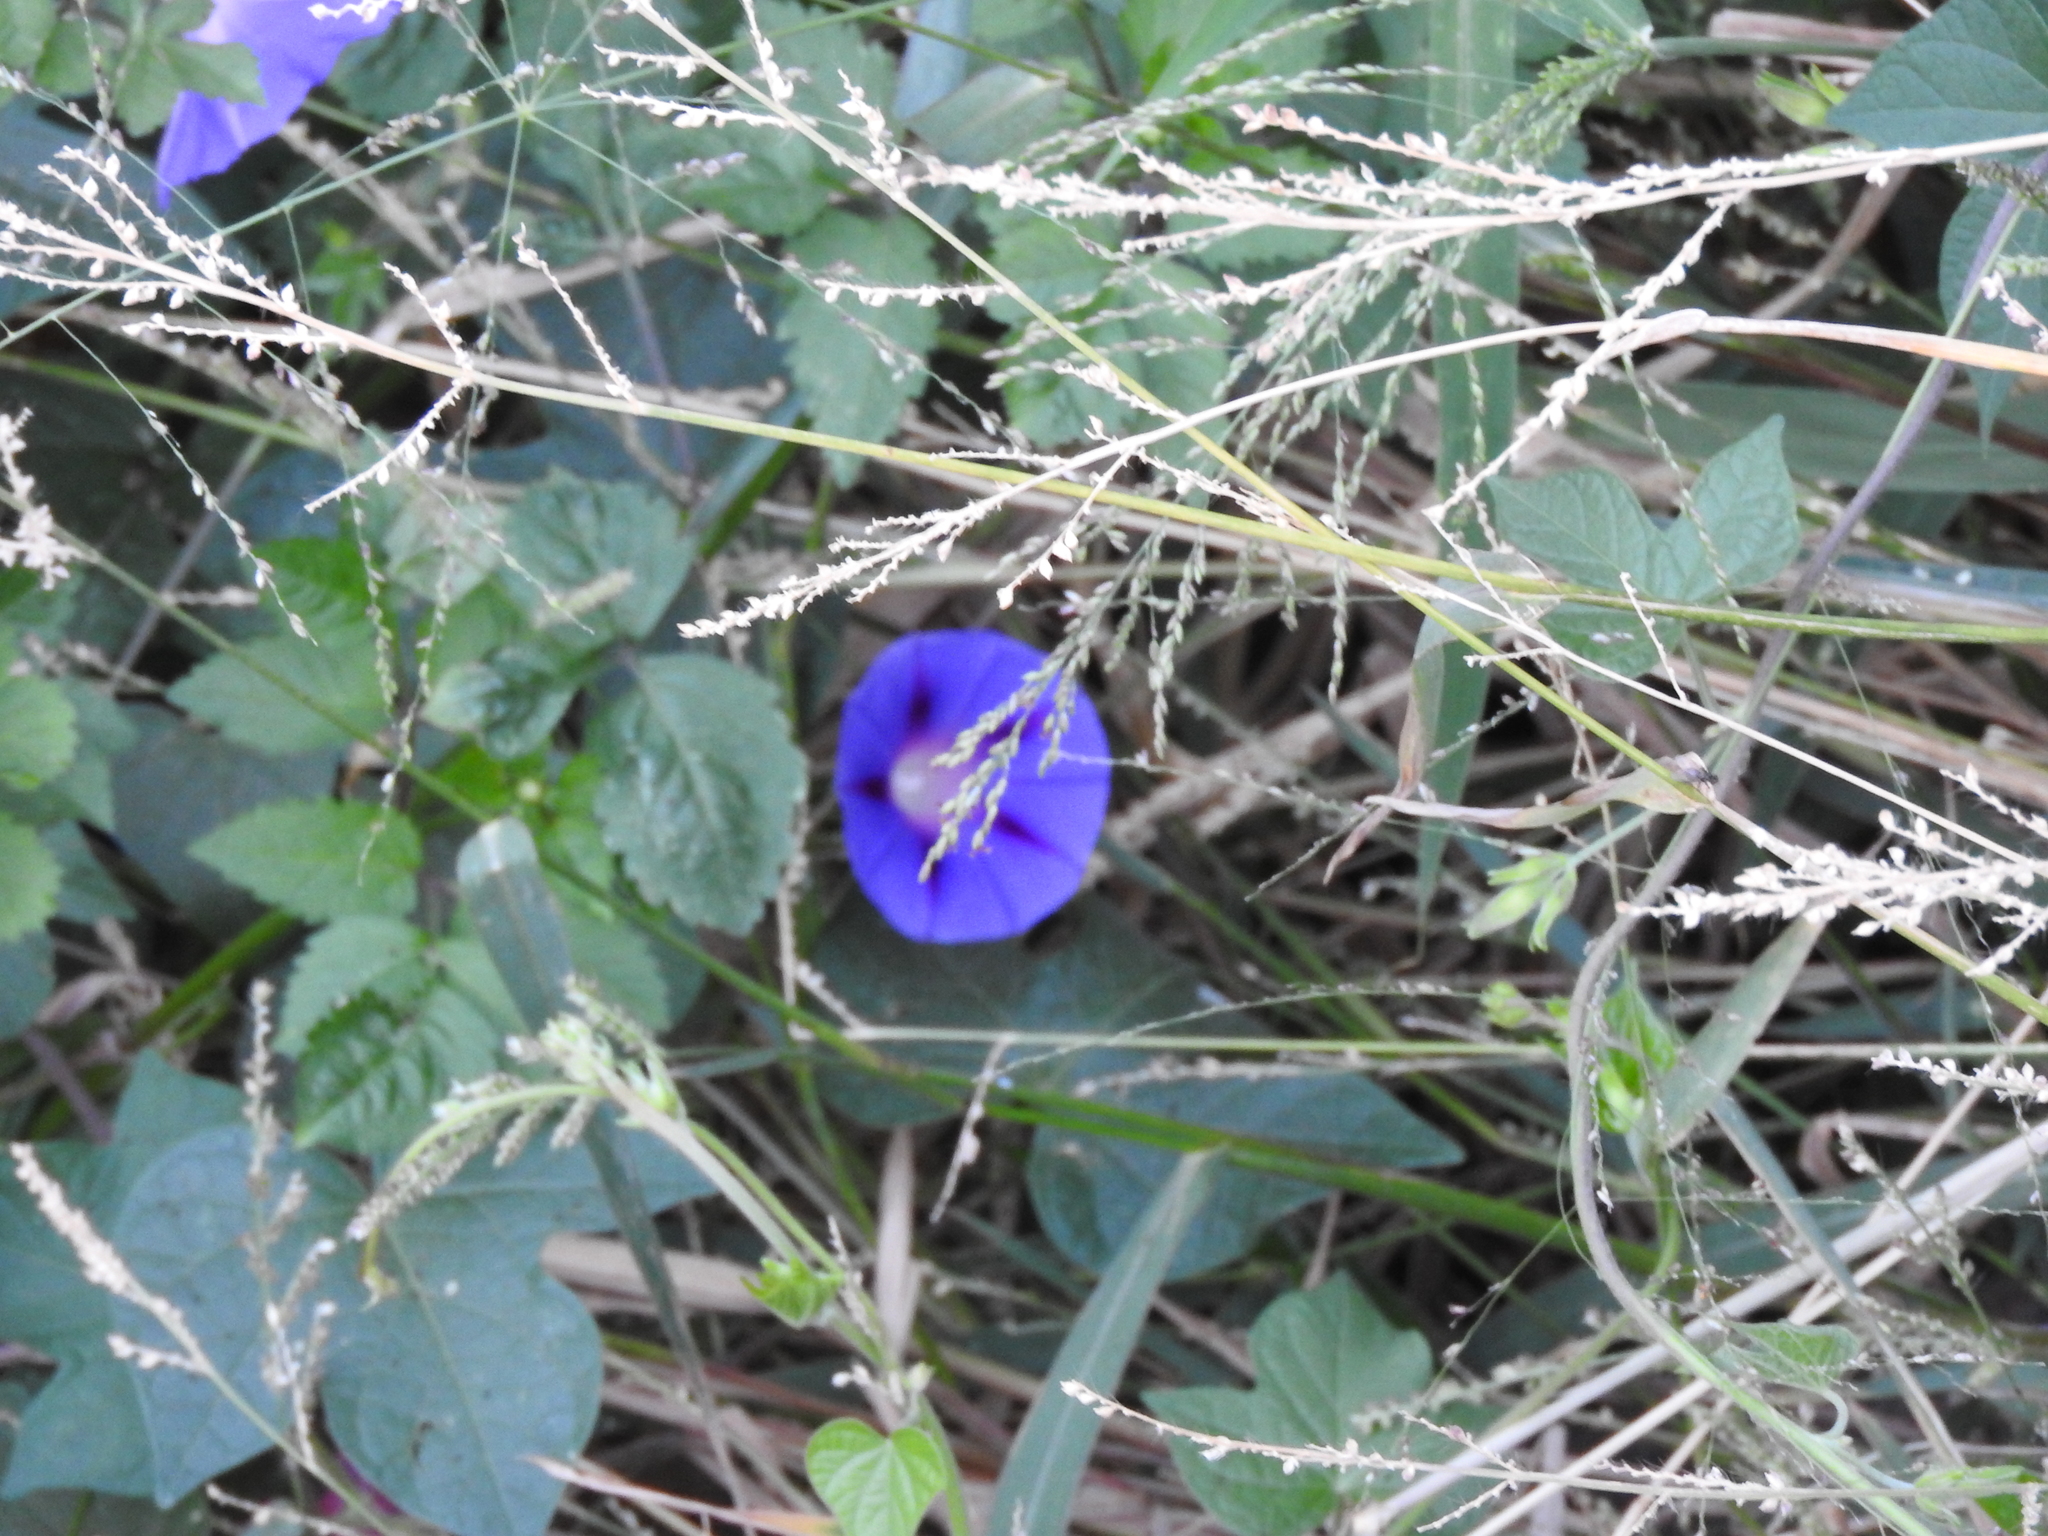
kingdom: Plantae
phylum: Tracheophyta
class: Magnoliopsida
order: Solanales
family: Convolvulaceae
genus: Ipomoea
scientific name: Ipomoea purpurea
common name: Common morning-glory
